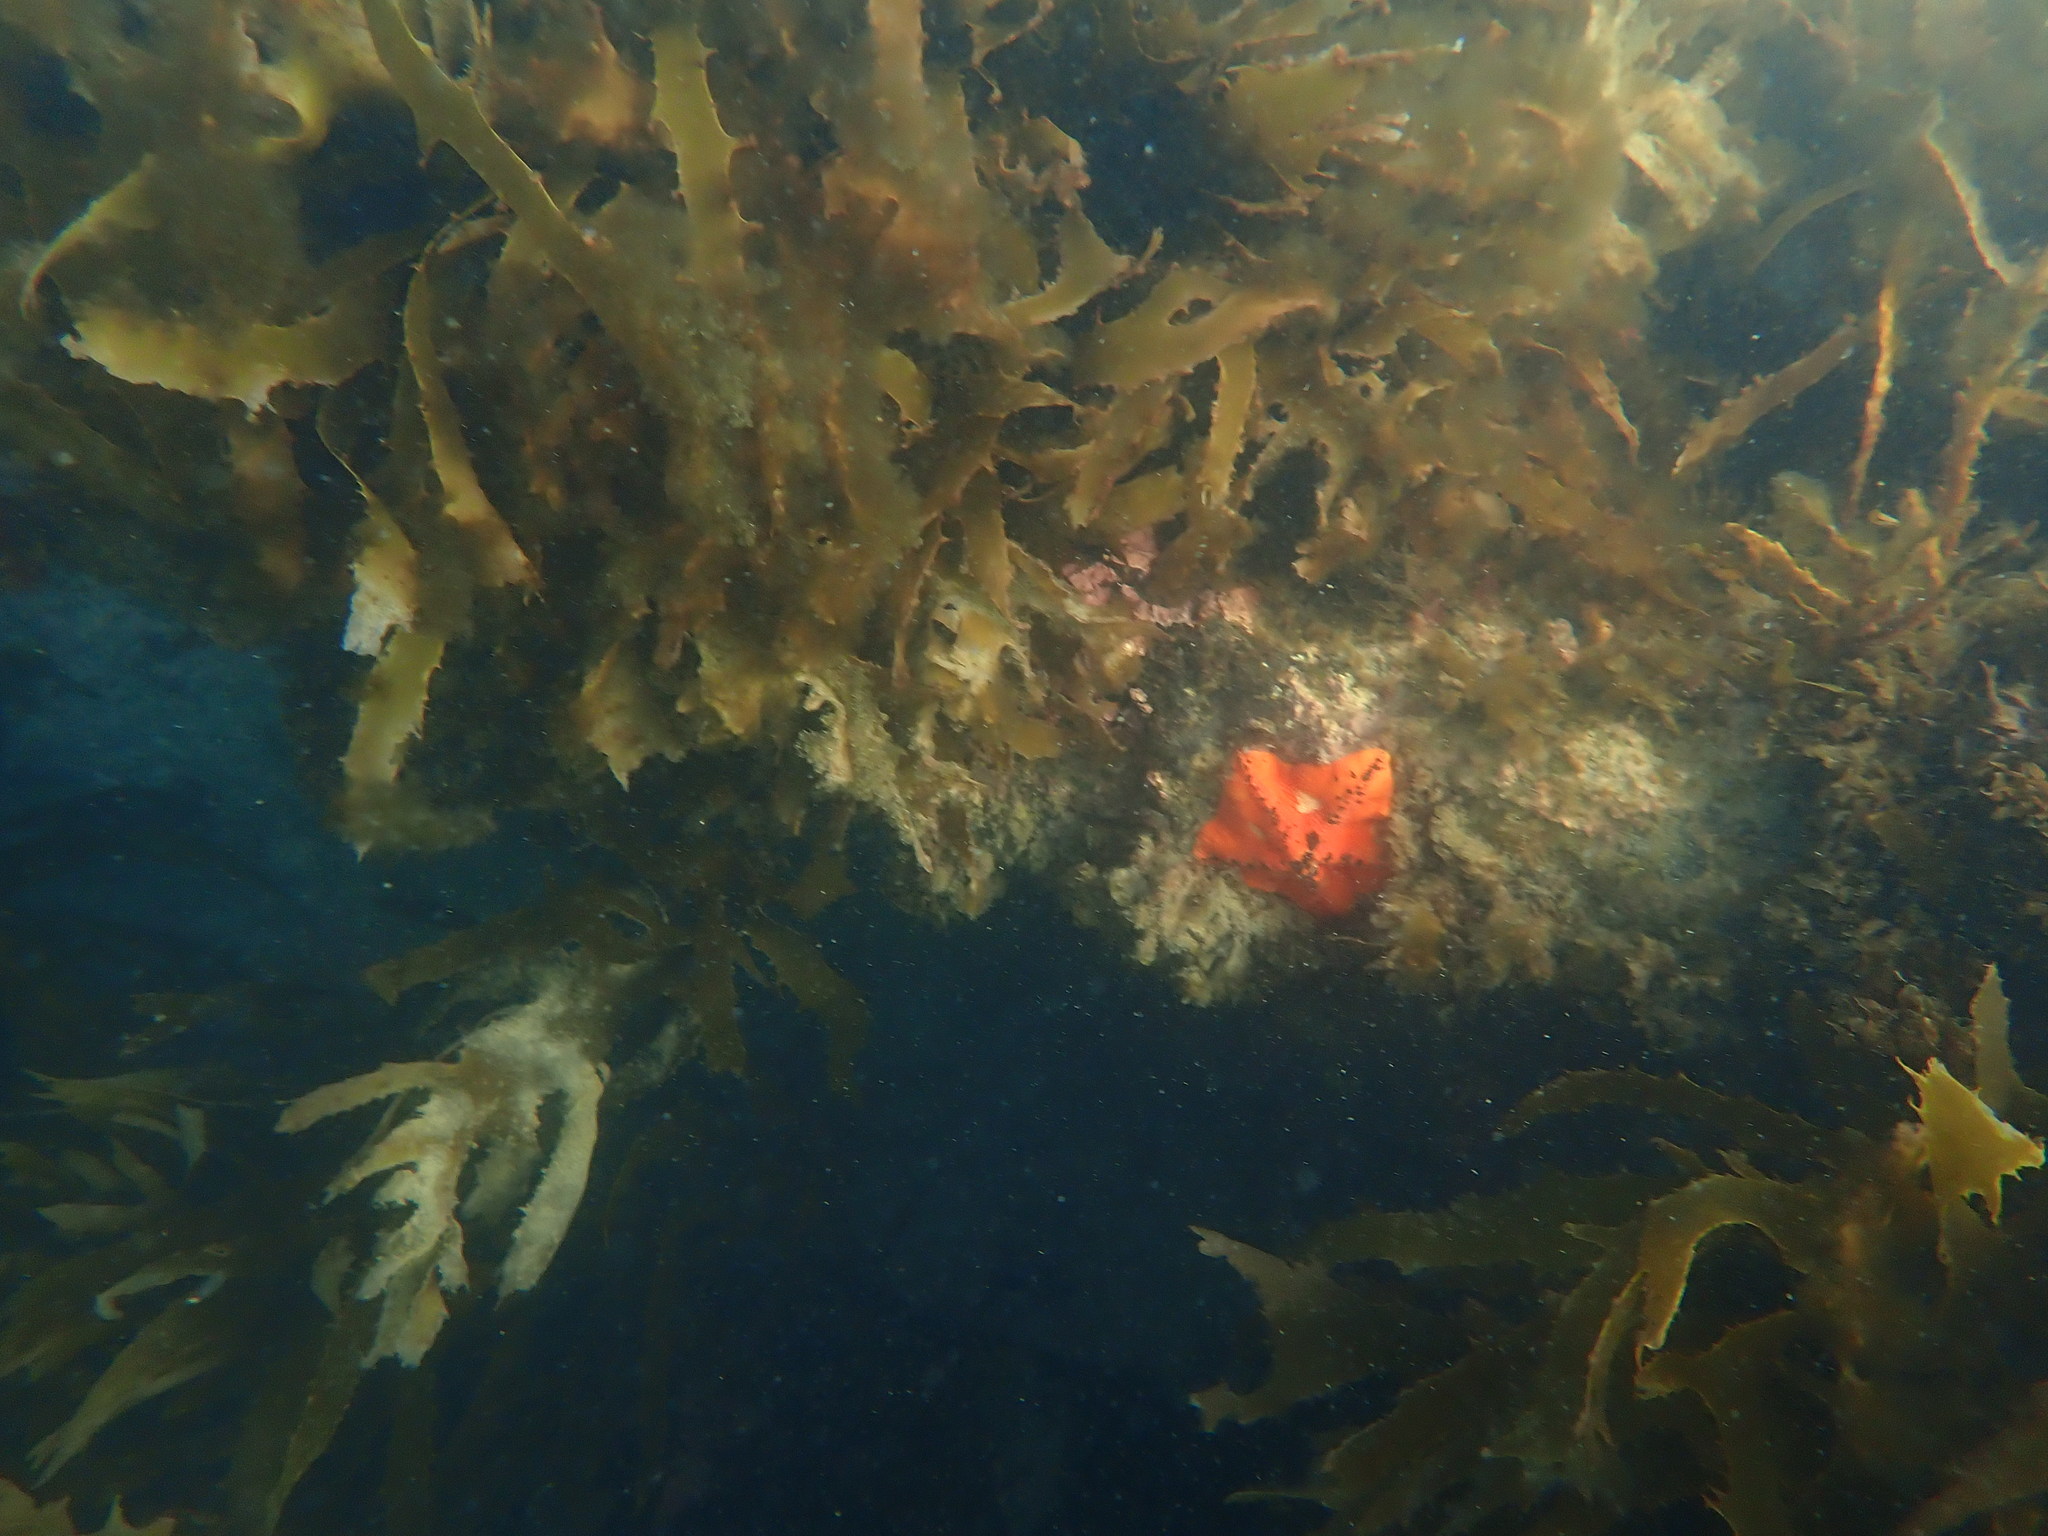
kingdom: Animalia
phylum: Echinodermata
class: Asteroidea
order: Valvatida
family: Asterinidae
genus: Stegnaster
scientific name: Stegnaster inflatus
